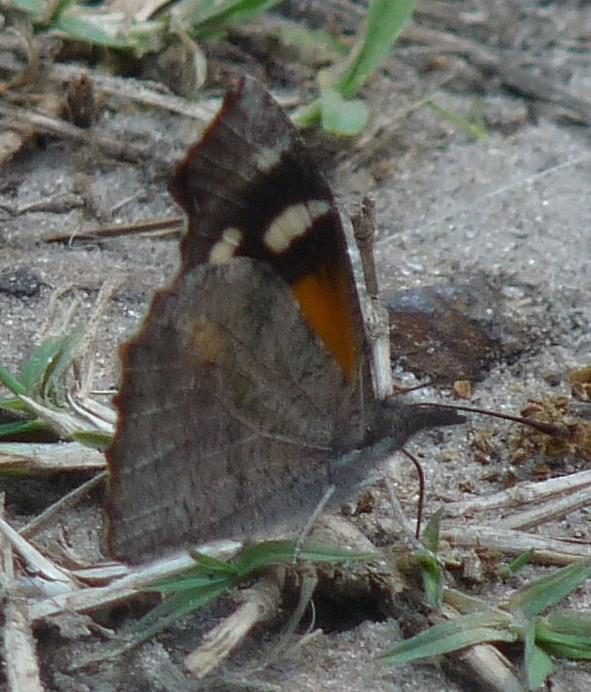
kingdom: Animalia
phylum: Arthropoda
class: Insecta
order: Lepidoptera
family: Nymphalidae
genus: Libytheana
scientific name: Libytheana carinenta
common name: American snout
